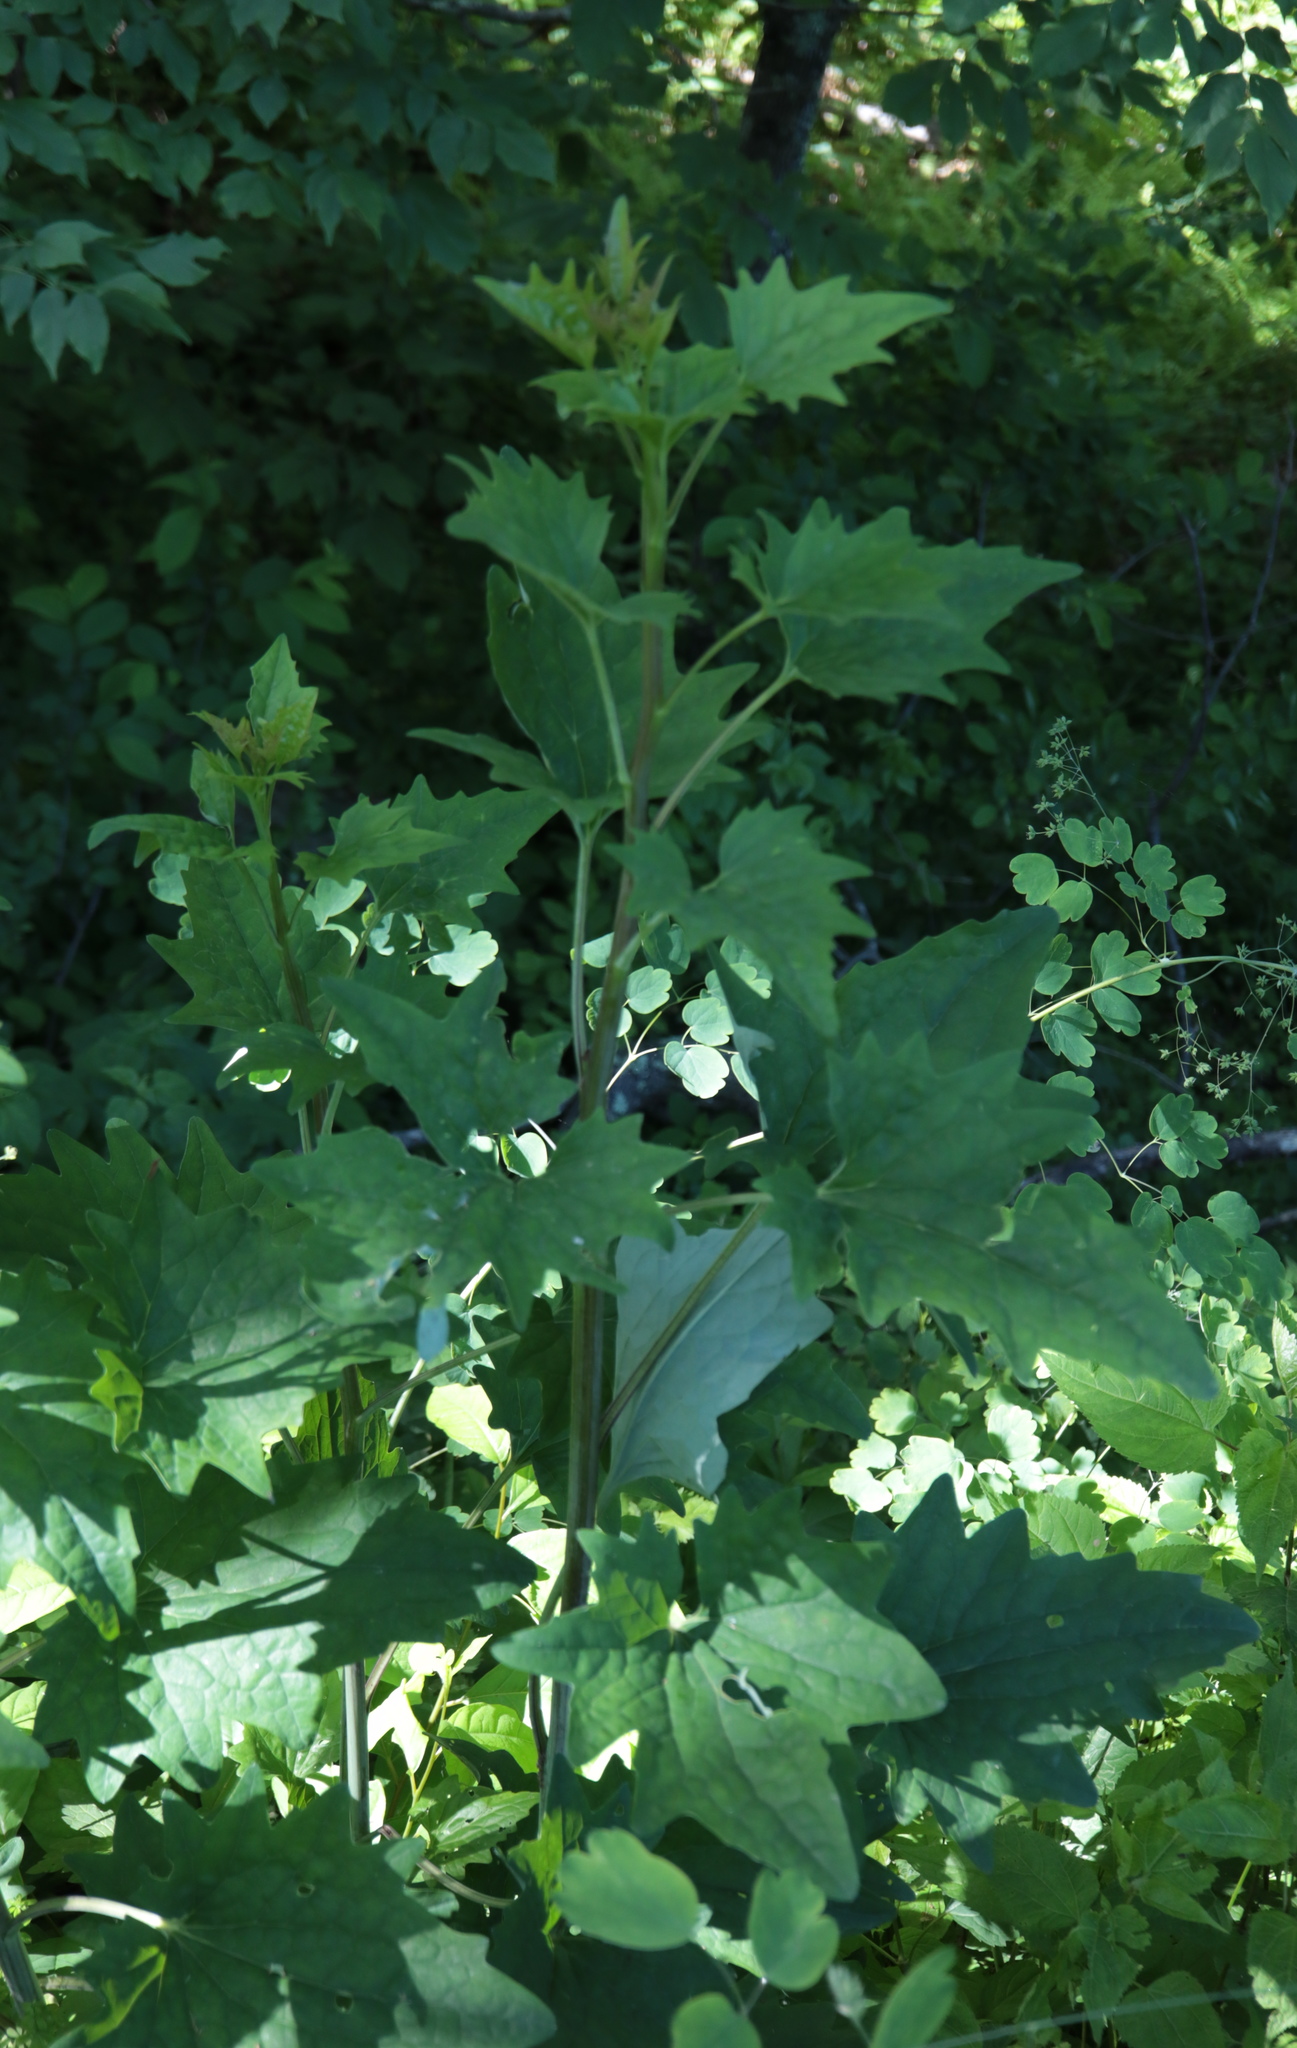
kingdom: Plantae
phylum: Tracheophyta
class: Magnoliopsida
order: Asterales
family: Asteraceae
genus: Arnoglossum
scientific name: Arnoglossum atriplicifolium
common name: Pale indian-plantain
